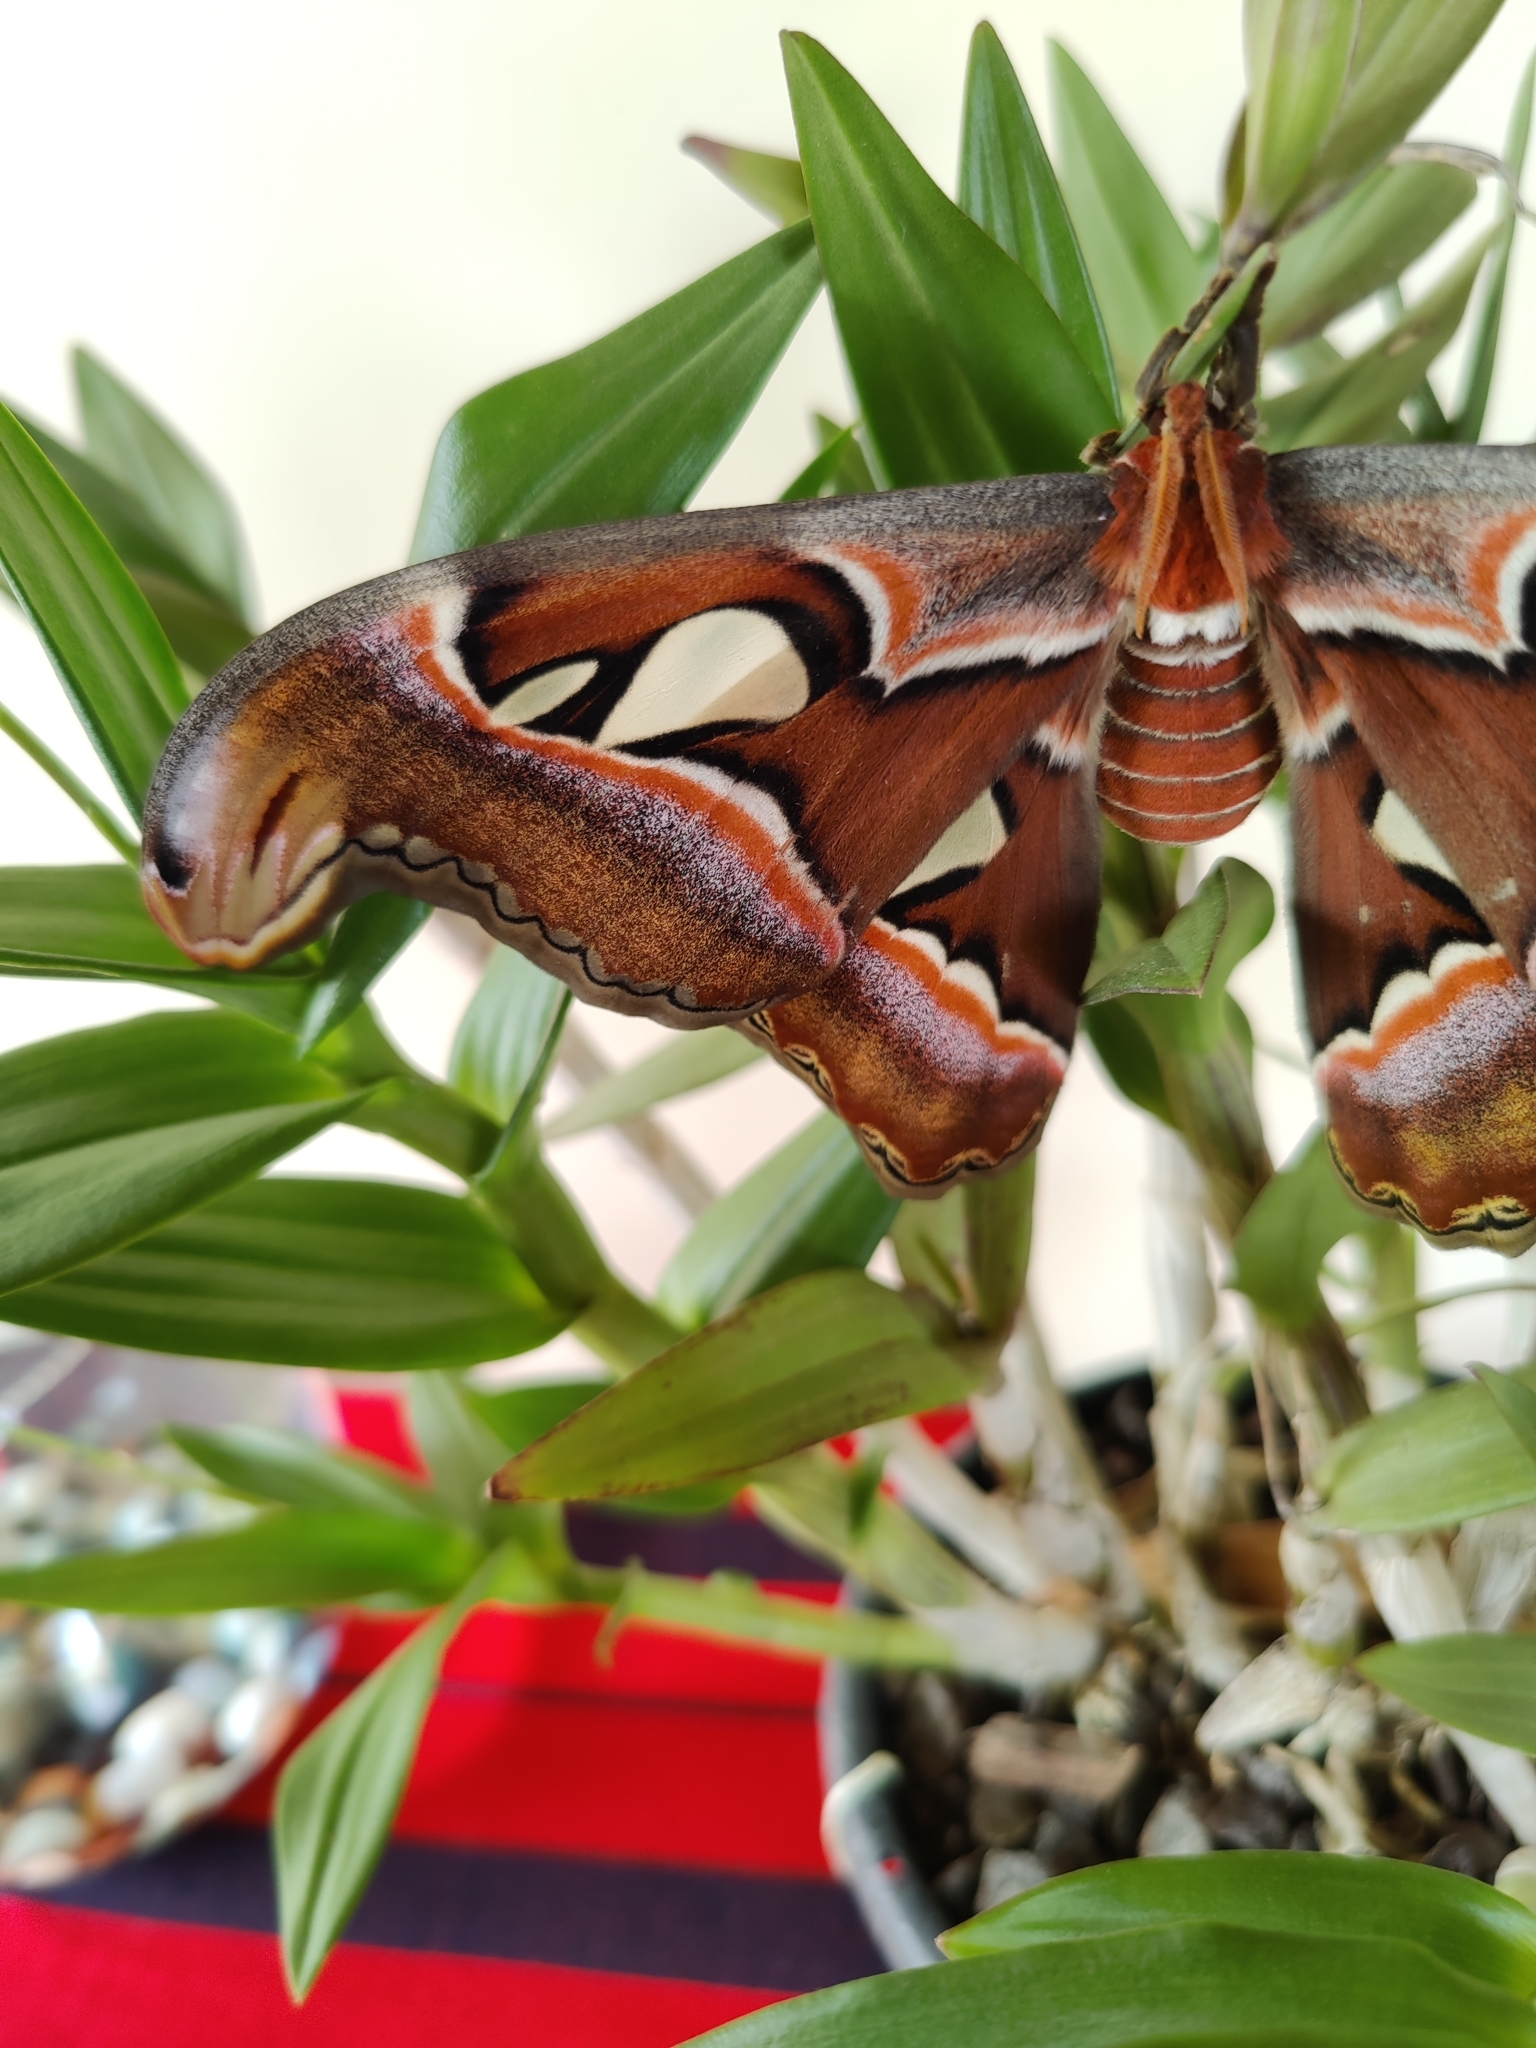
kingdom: Animalia
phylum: Arthropoda
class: Insecta
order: Lepidoptera
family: Saturniidae
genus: Attacus
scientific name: Attacus taprobanis
